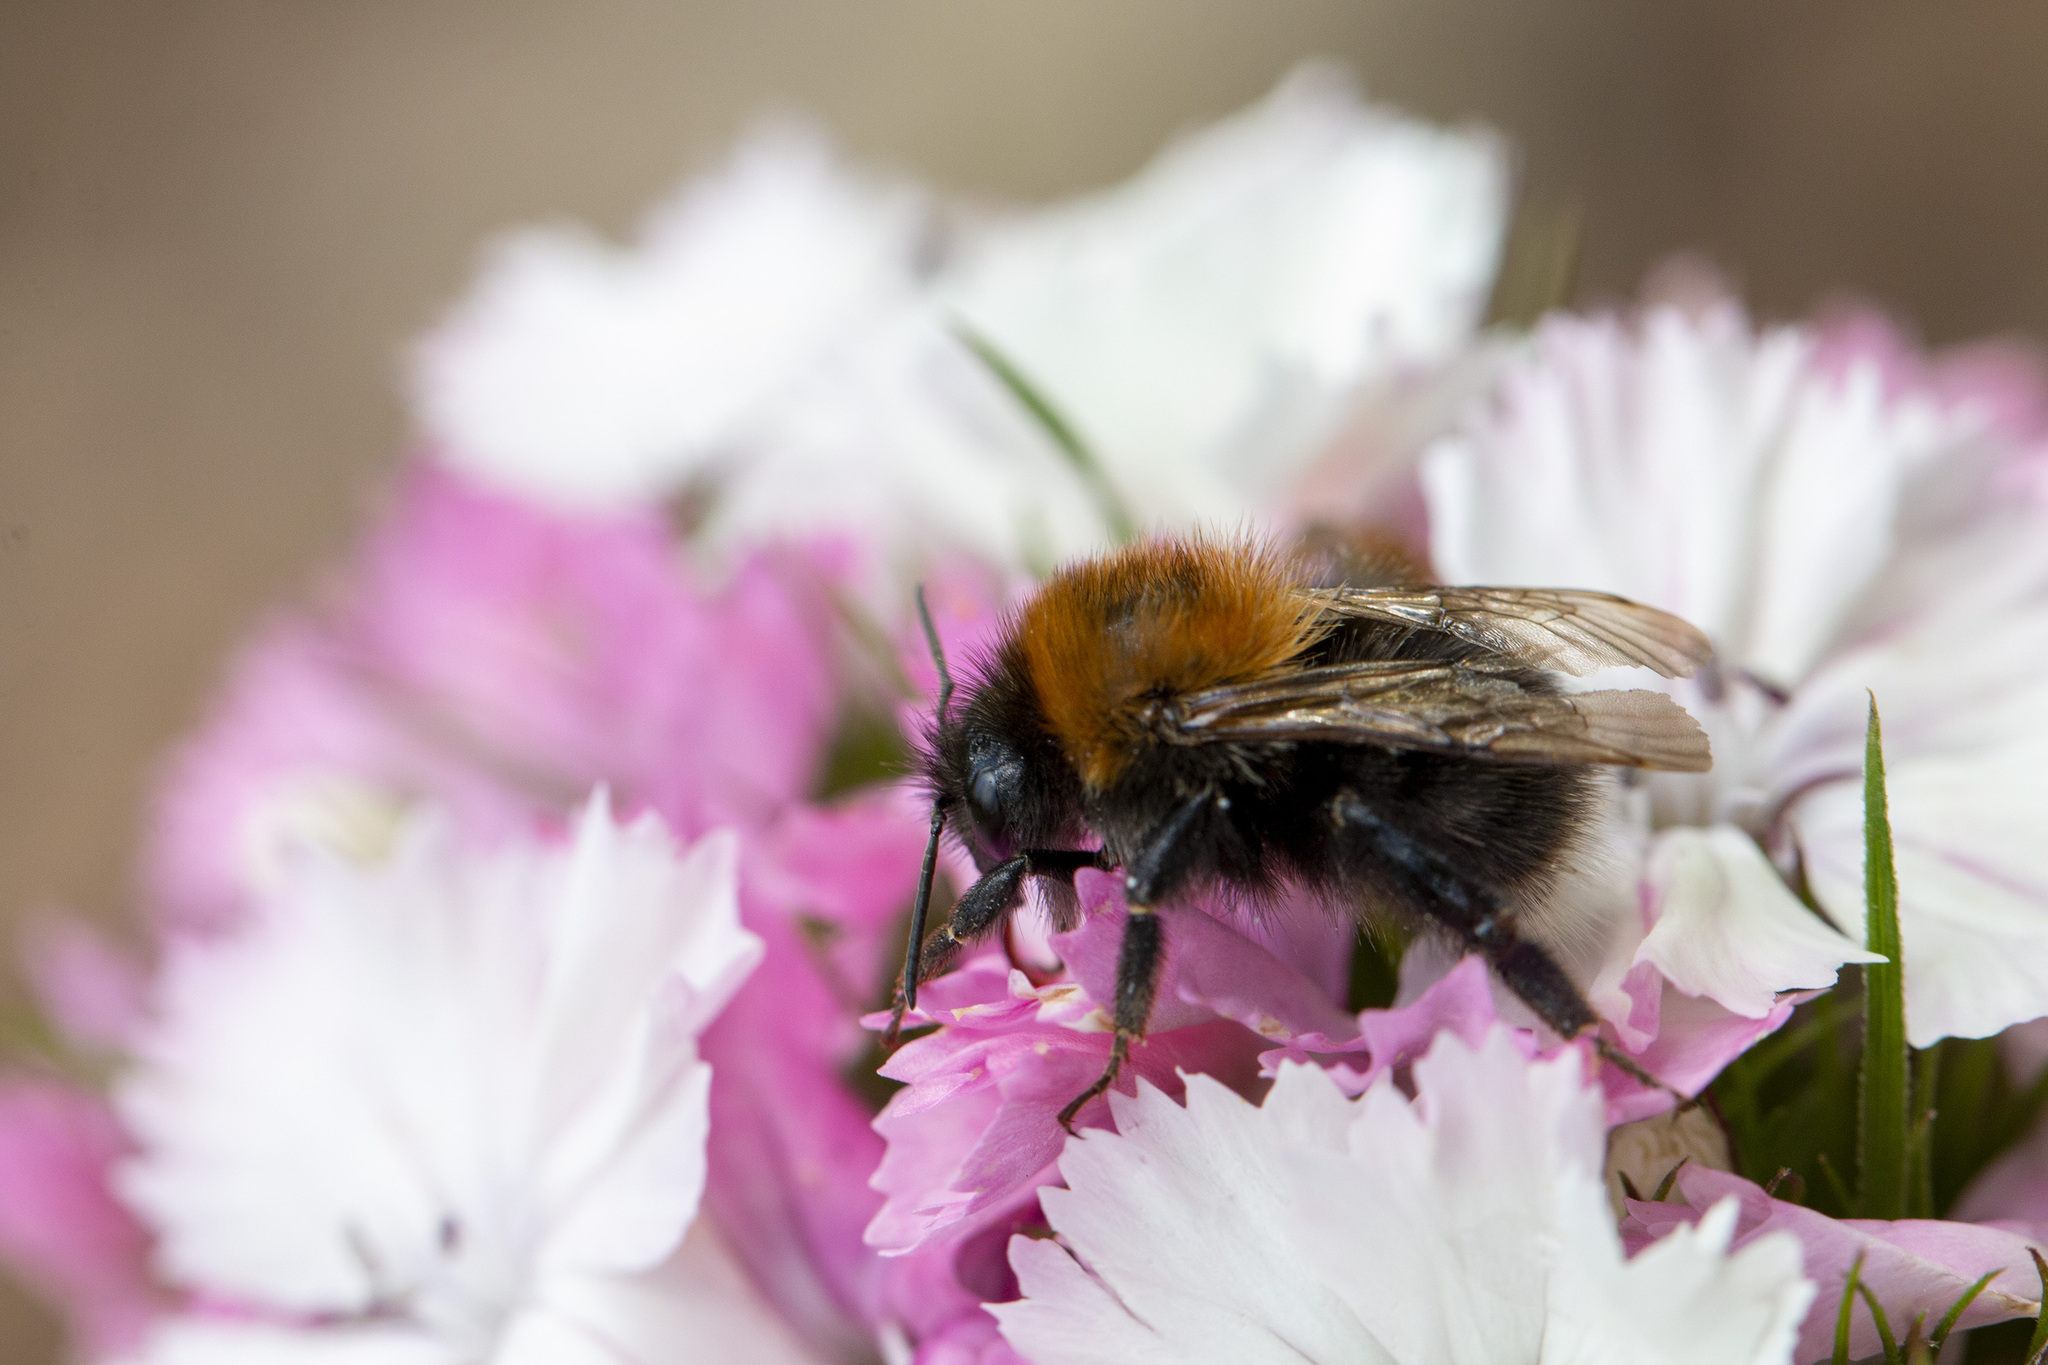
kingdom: Animalia
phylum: Arthropoda
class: Insecta
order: Hymenoptera
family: Apidae
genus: Bombus
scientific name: Bombus hypnorum
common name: New garden bumblebee
